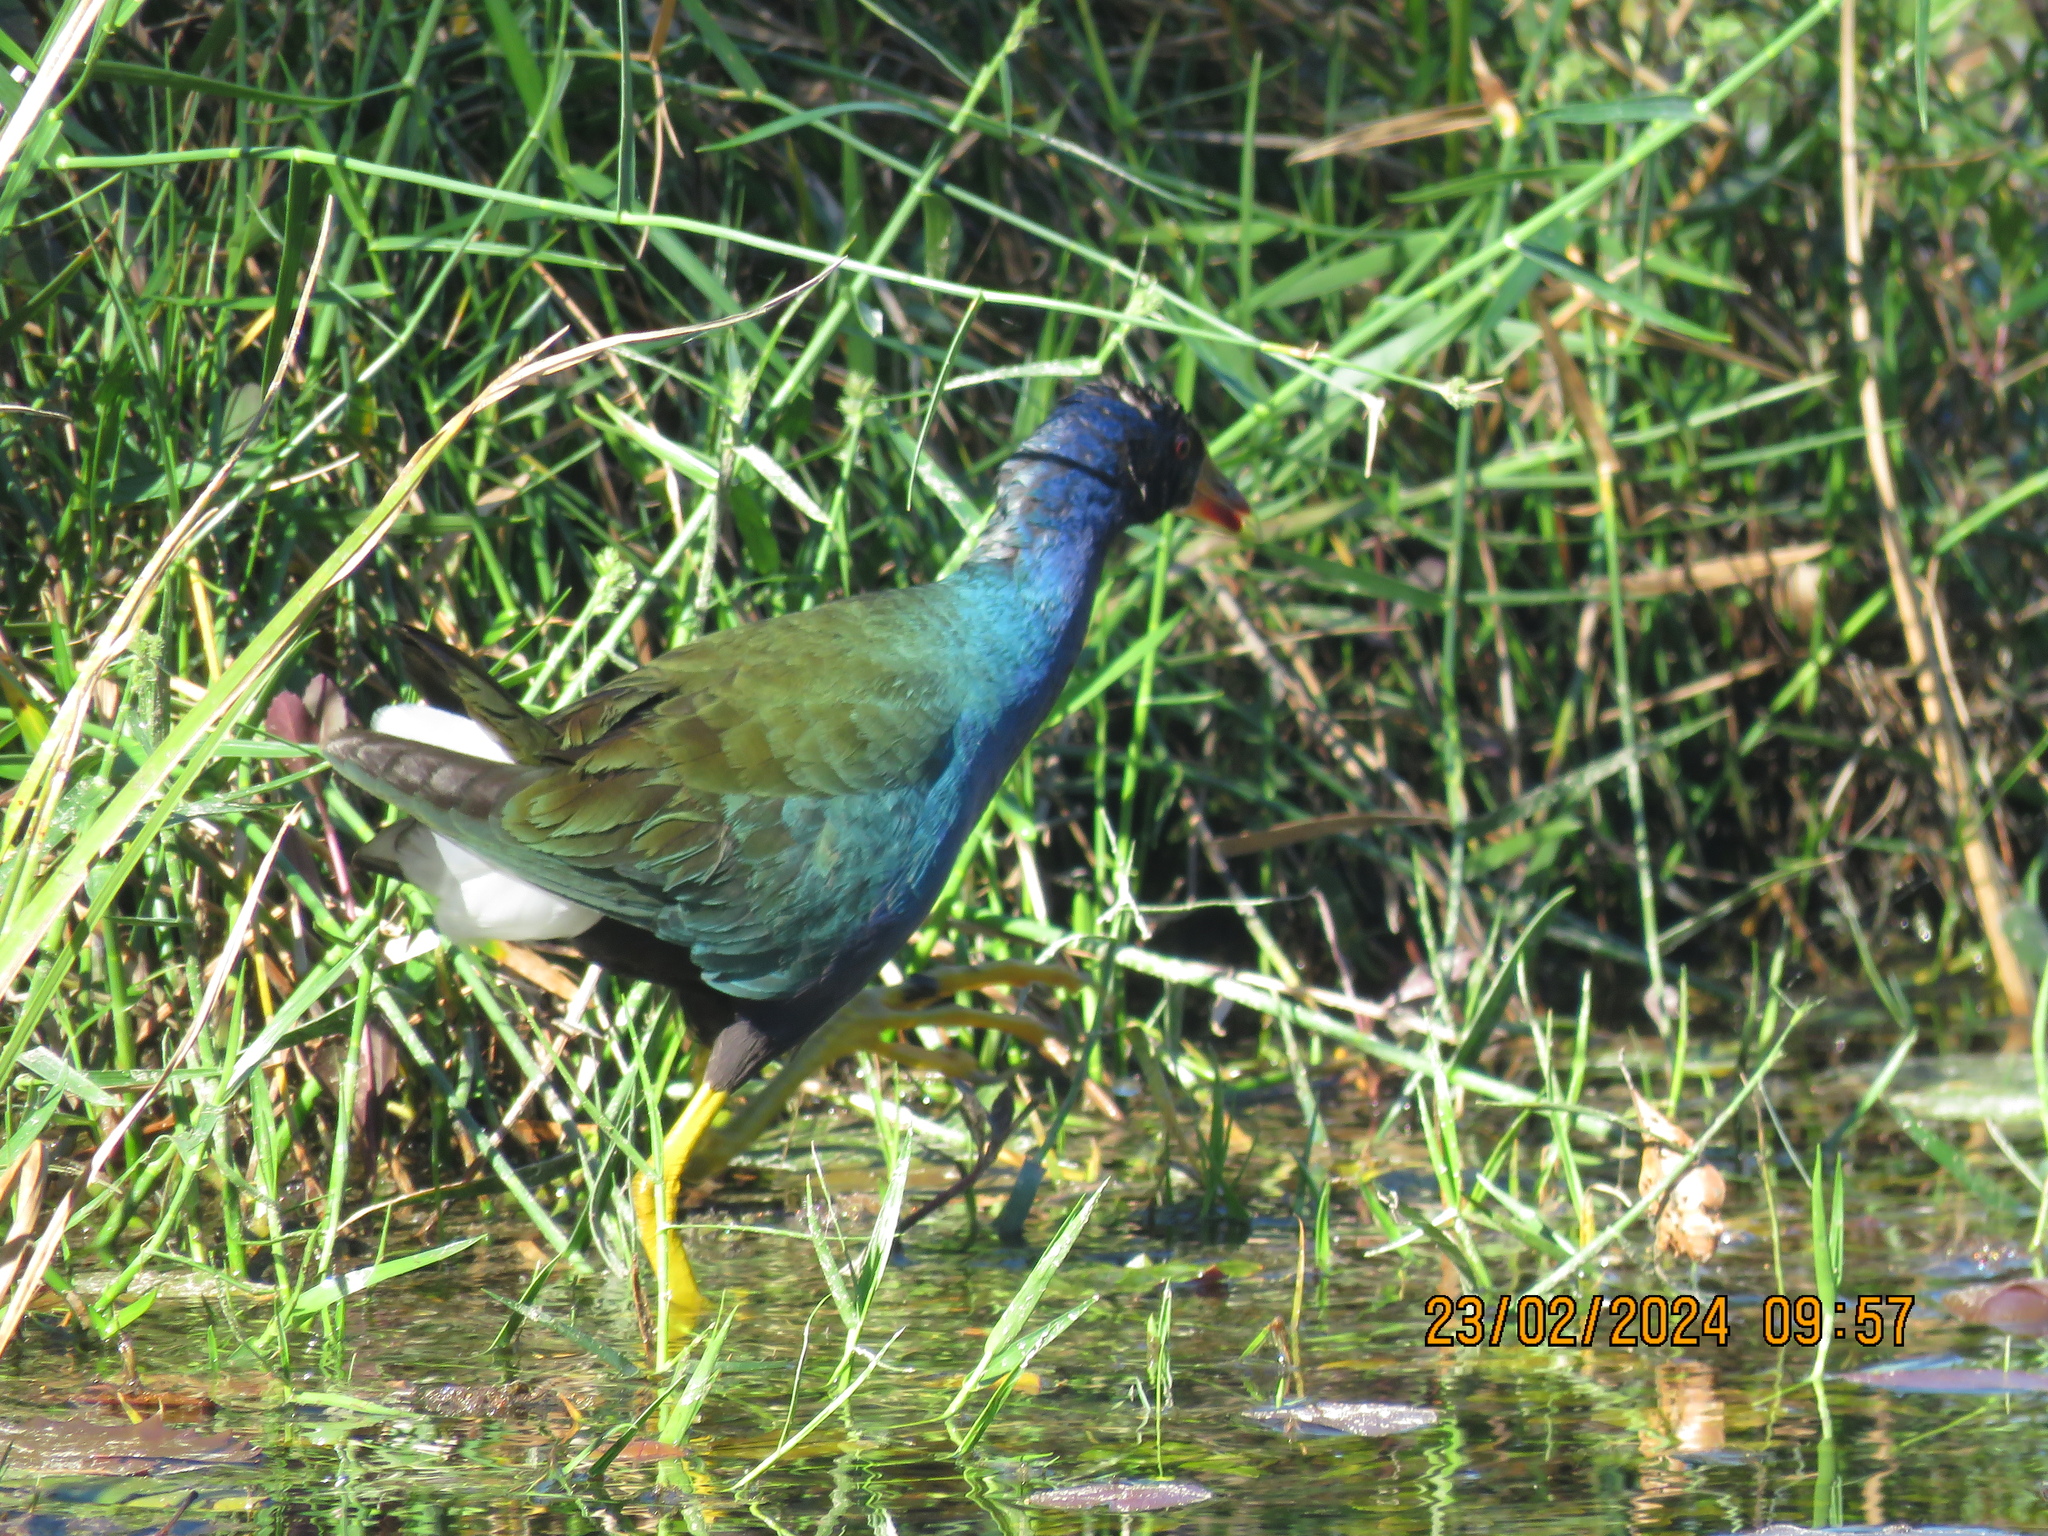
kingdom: Animalia
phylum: Chordata
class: Aves
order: Gruiformes
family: Rallidae
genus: Porphyrio
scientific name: Porphyrio martinica
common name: Purple gallinule
